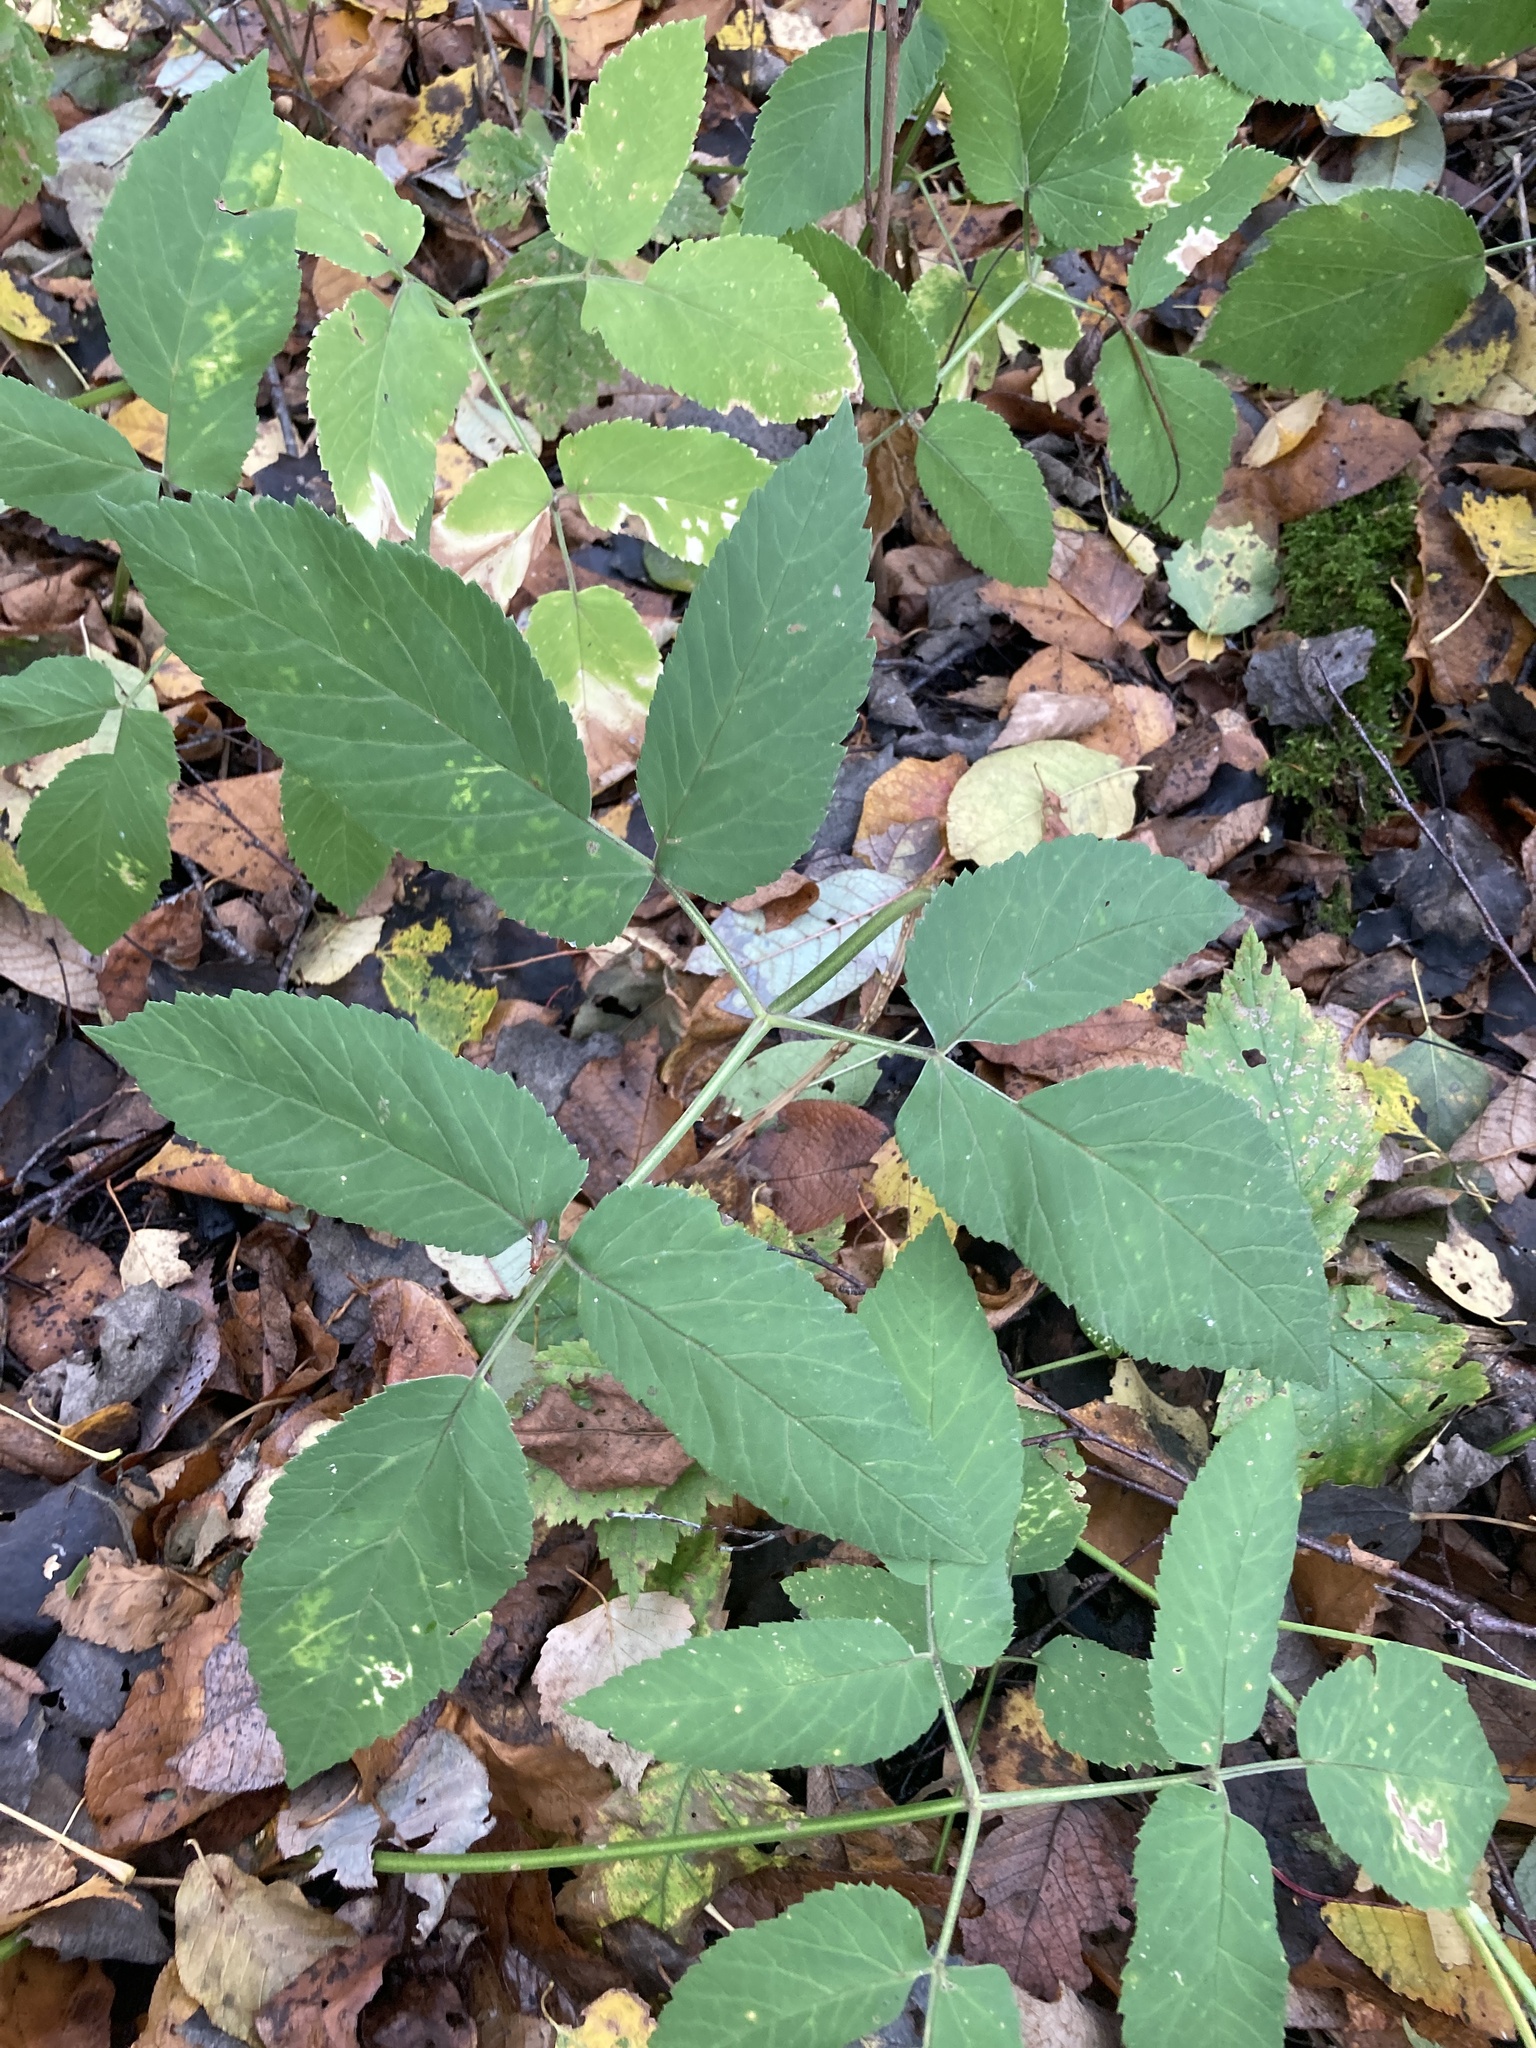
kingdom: Plantae
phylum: Tracheophyta
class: Magnoliopsida
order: Apiales
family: Apiaceae
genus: Aegopodium
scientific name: Aegopodium podagraria
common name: Ground-elder
